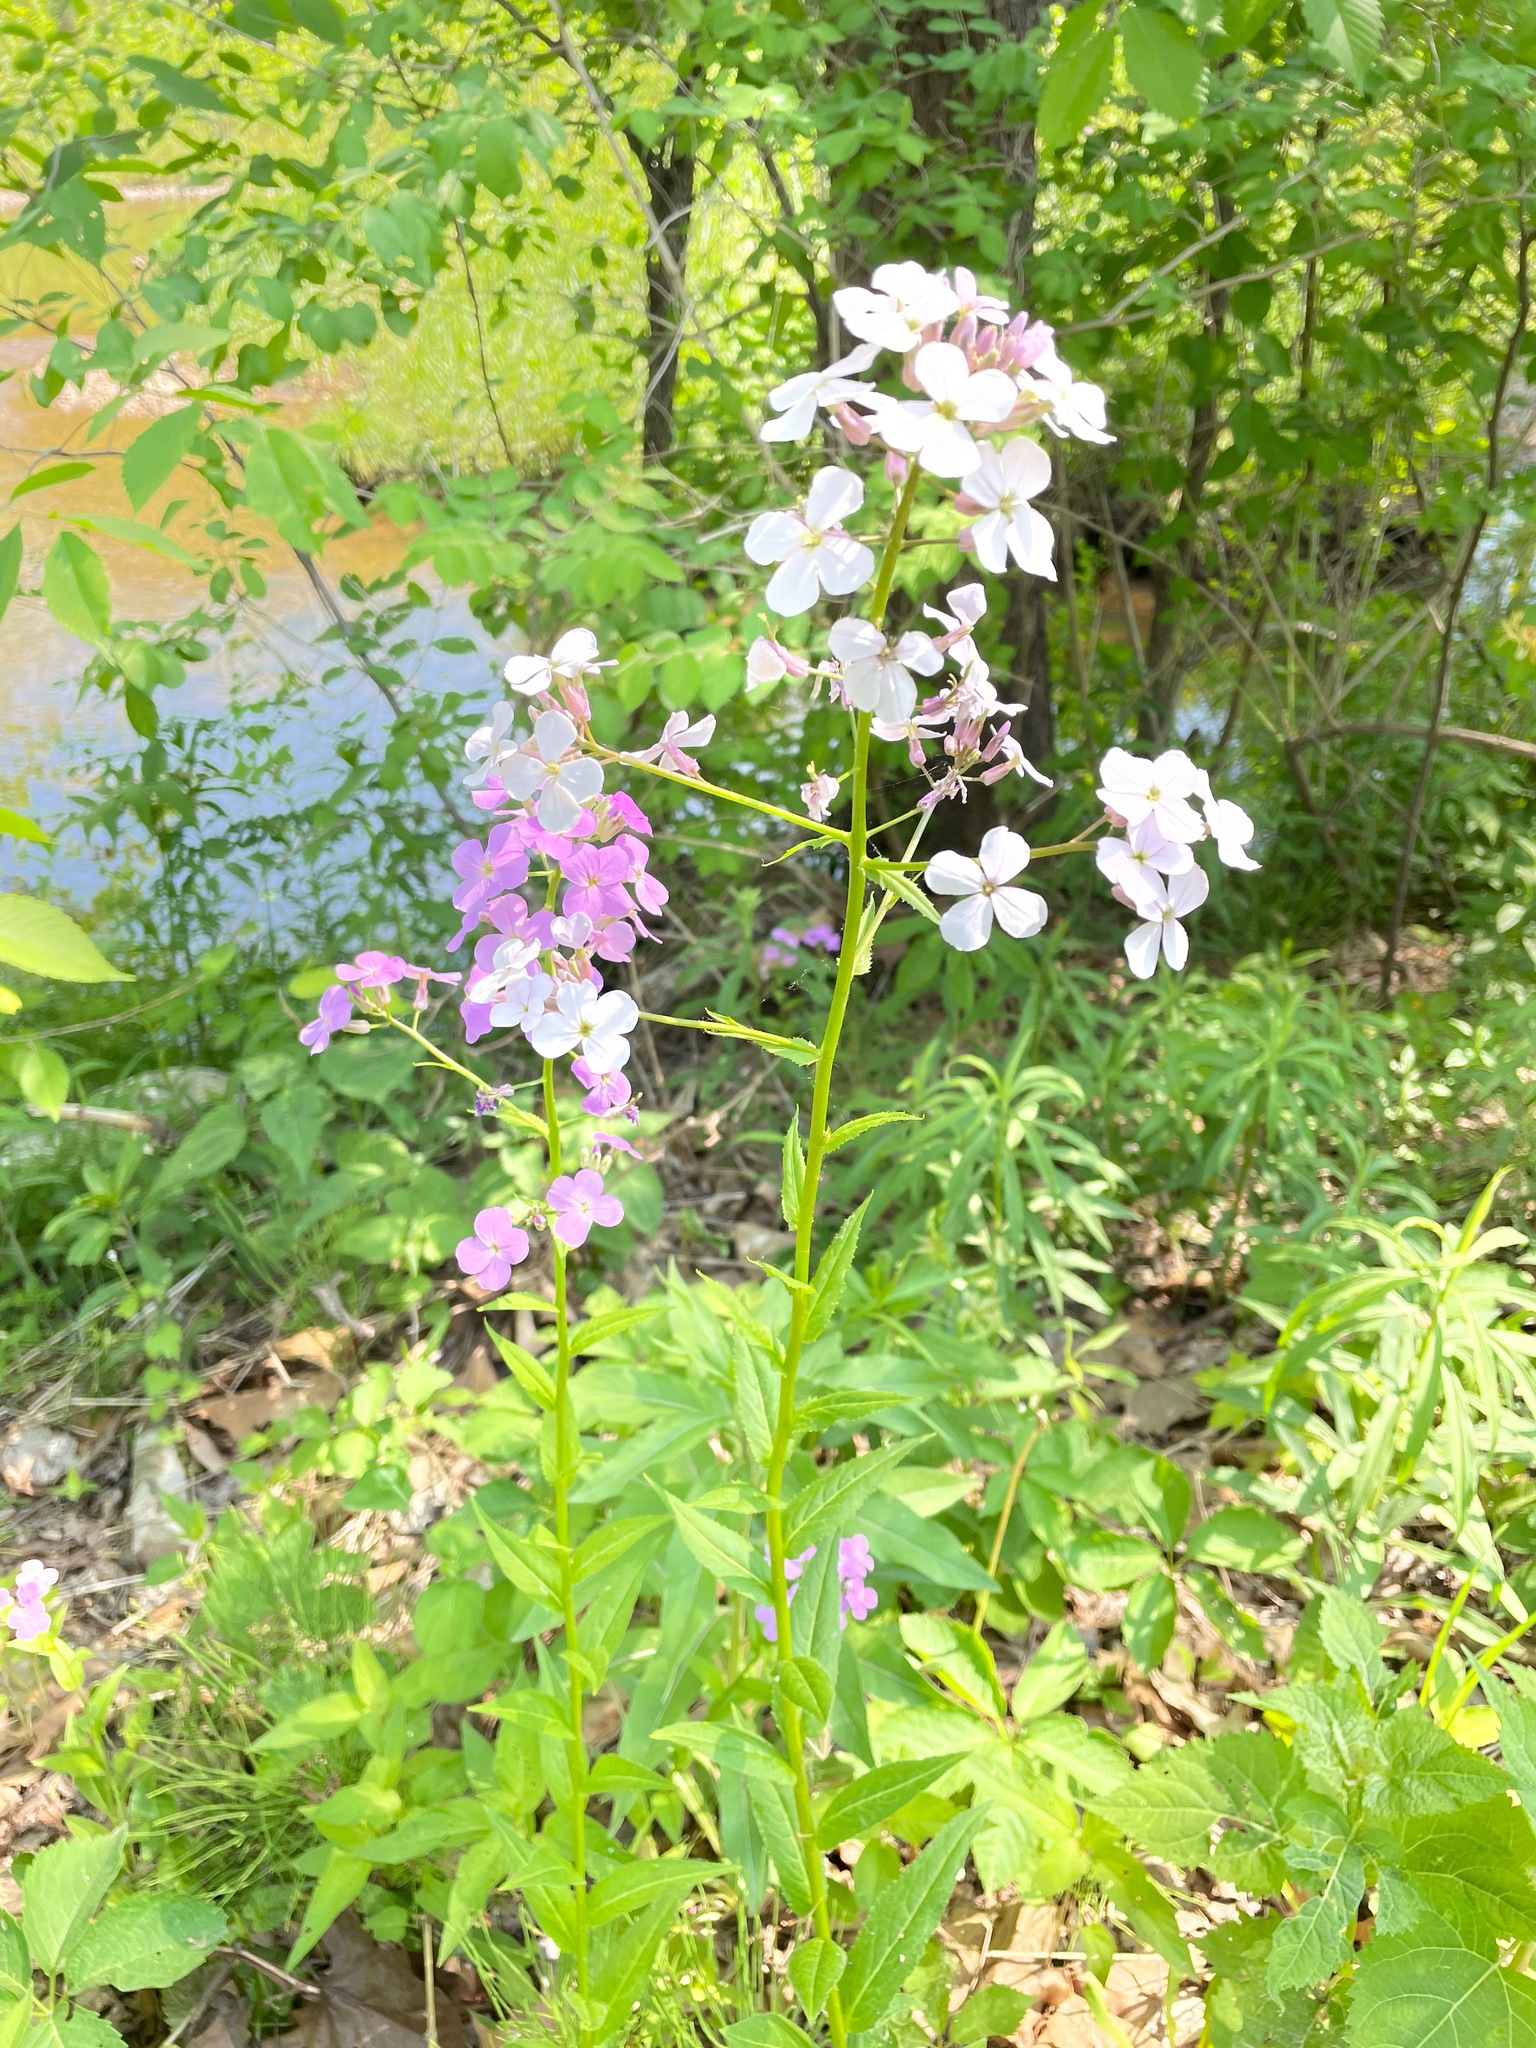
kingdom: Plantae
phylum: Tracheophyta
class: Magnoliopsida
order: Brassicales
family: Brassicaceae
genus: Hesperis
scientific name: Hesperis matronalis
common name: Dame's-violet
